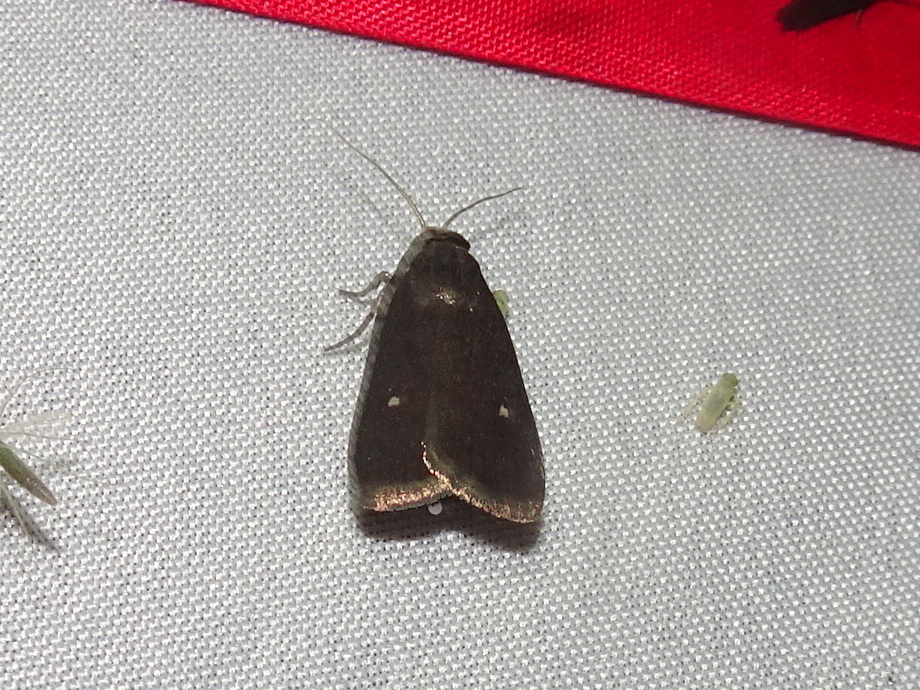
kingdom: Animalia
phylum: Arthropoda
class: Insecta
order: Lepidoptera
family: Noctuidae
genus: Proxenus
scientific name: Proxenus miranda
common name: Miranda moth
